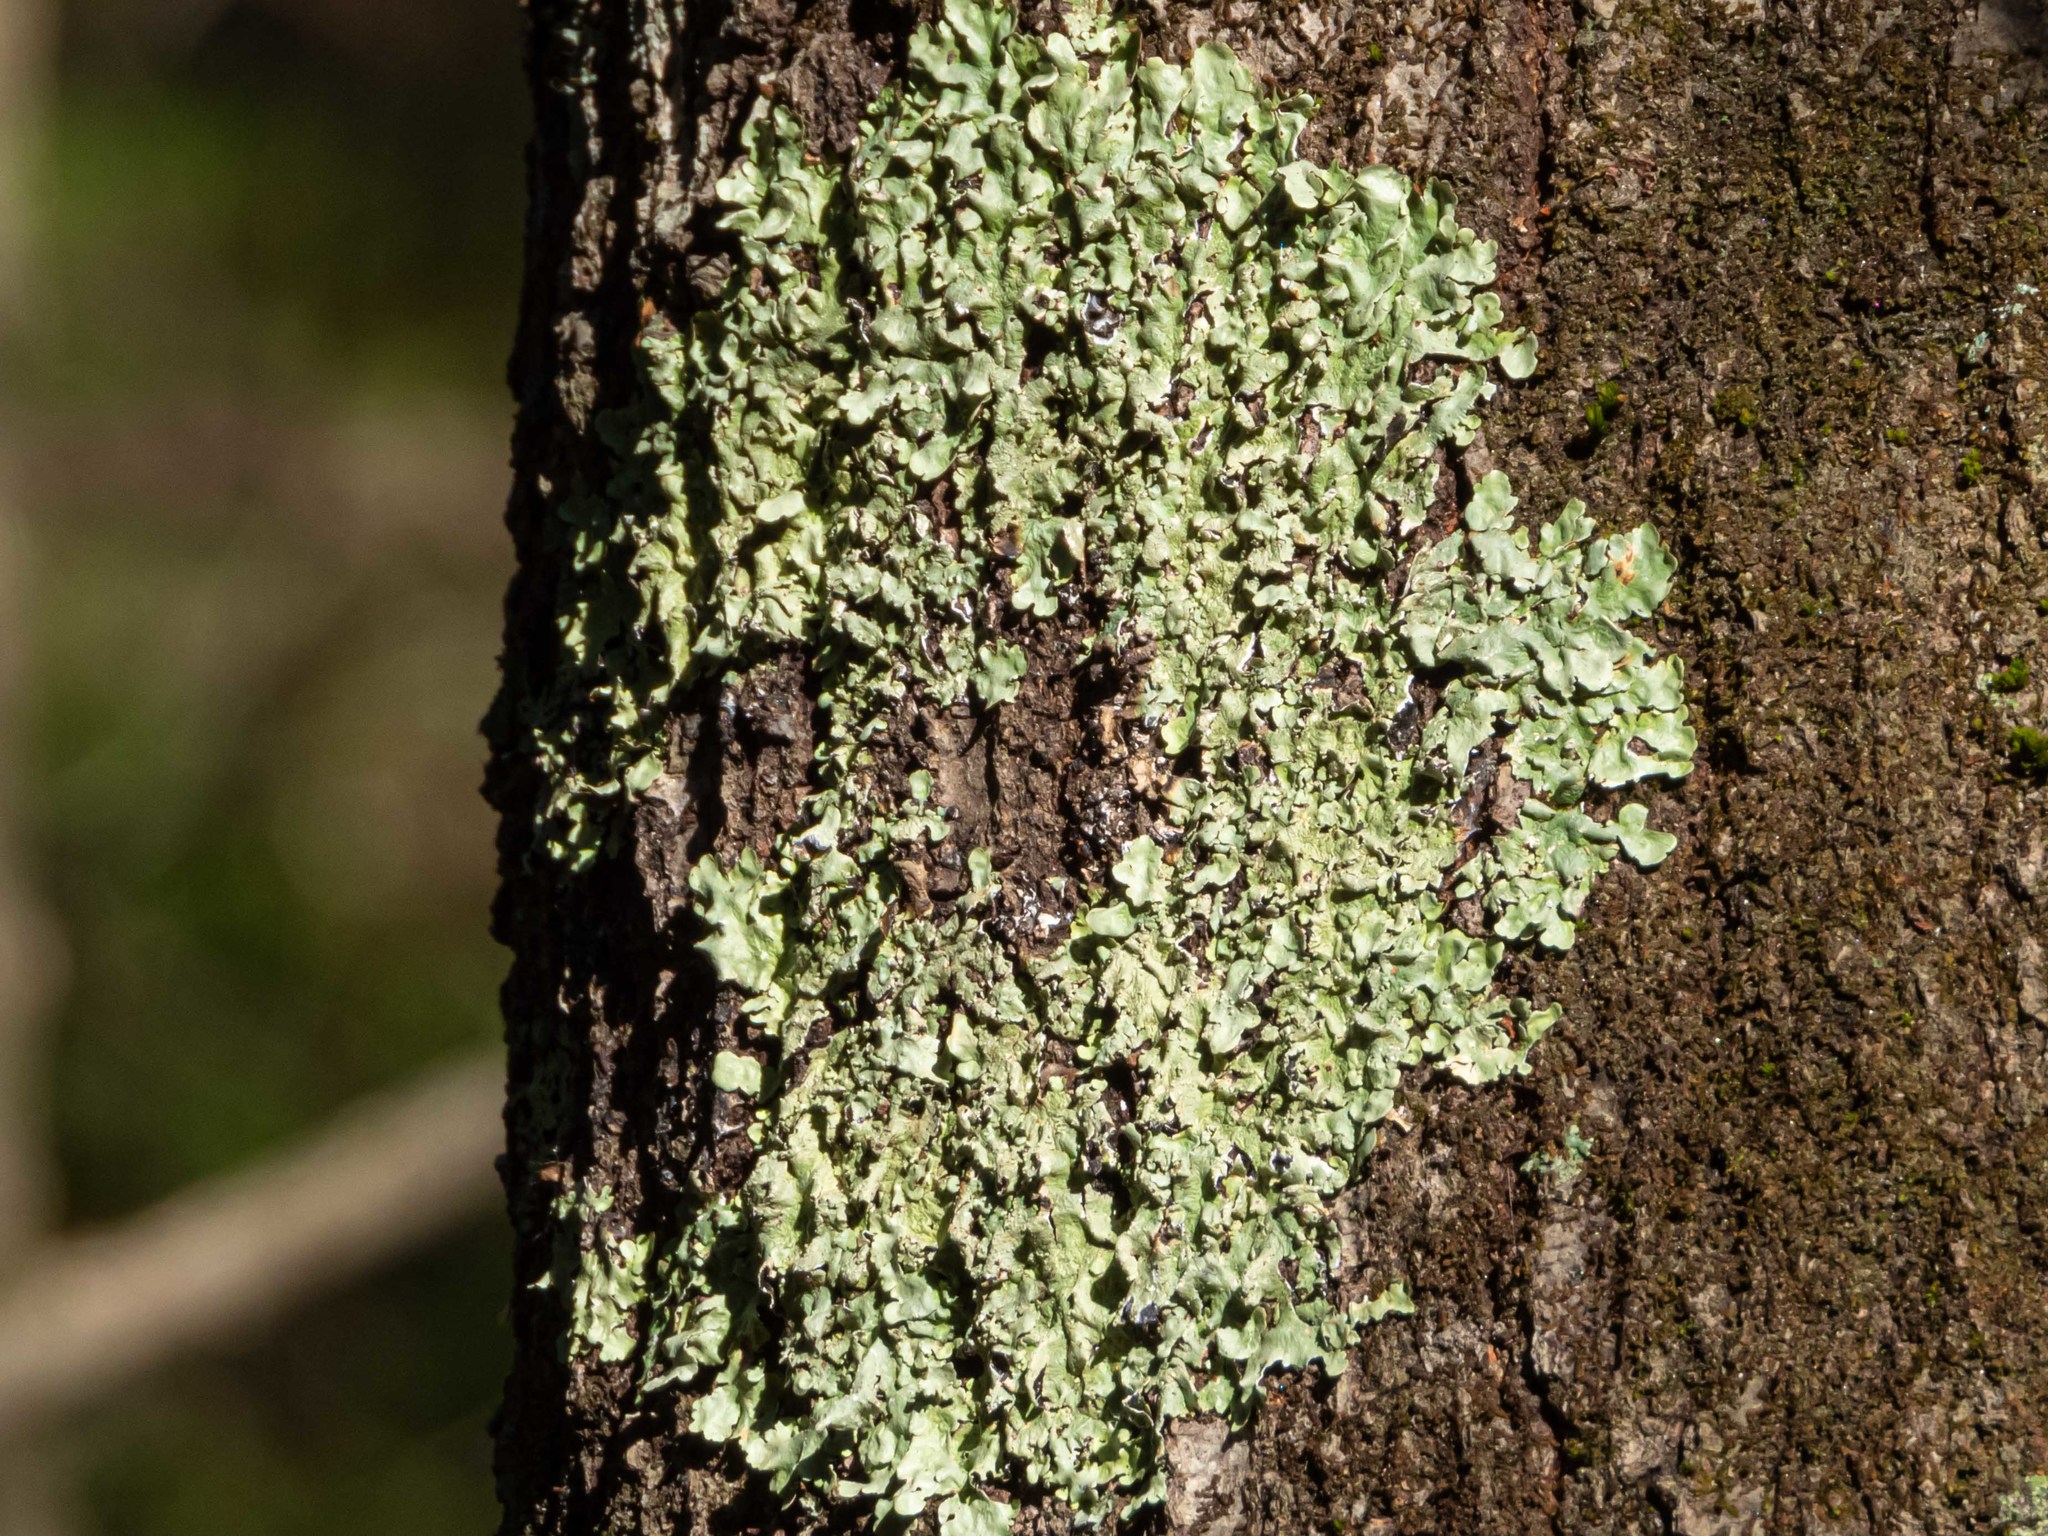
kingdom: Fungi
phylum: Ascomycota
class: Lecanoromycetes
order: Lecanorales
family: Parmeliaceae
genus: Flavoparmelia
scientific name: Flavoparmelia caperata
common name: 40-mile per hour lichen
